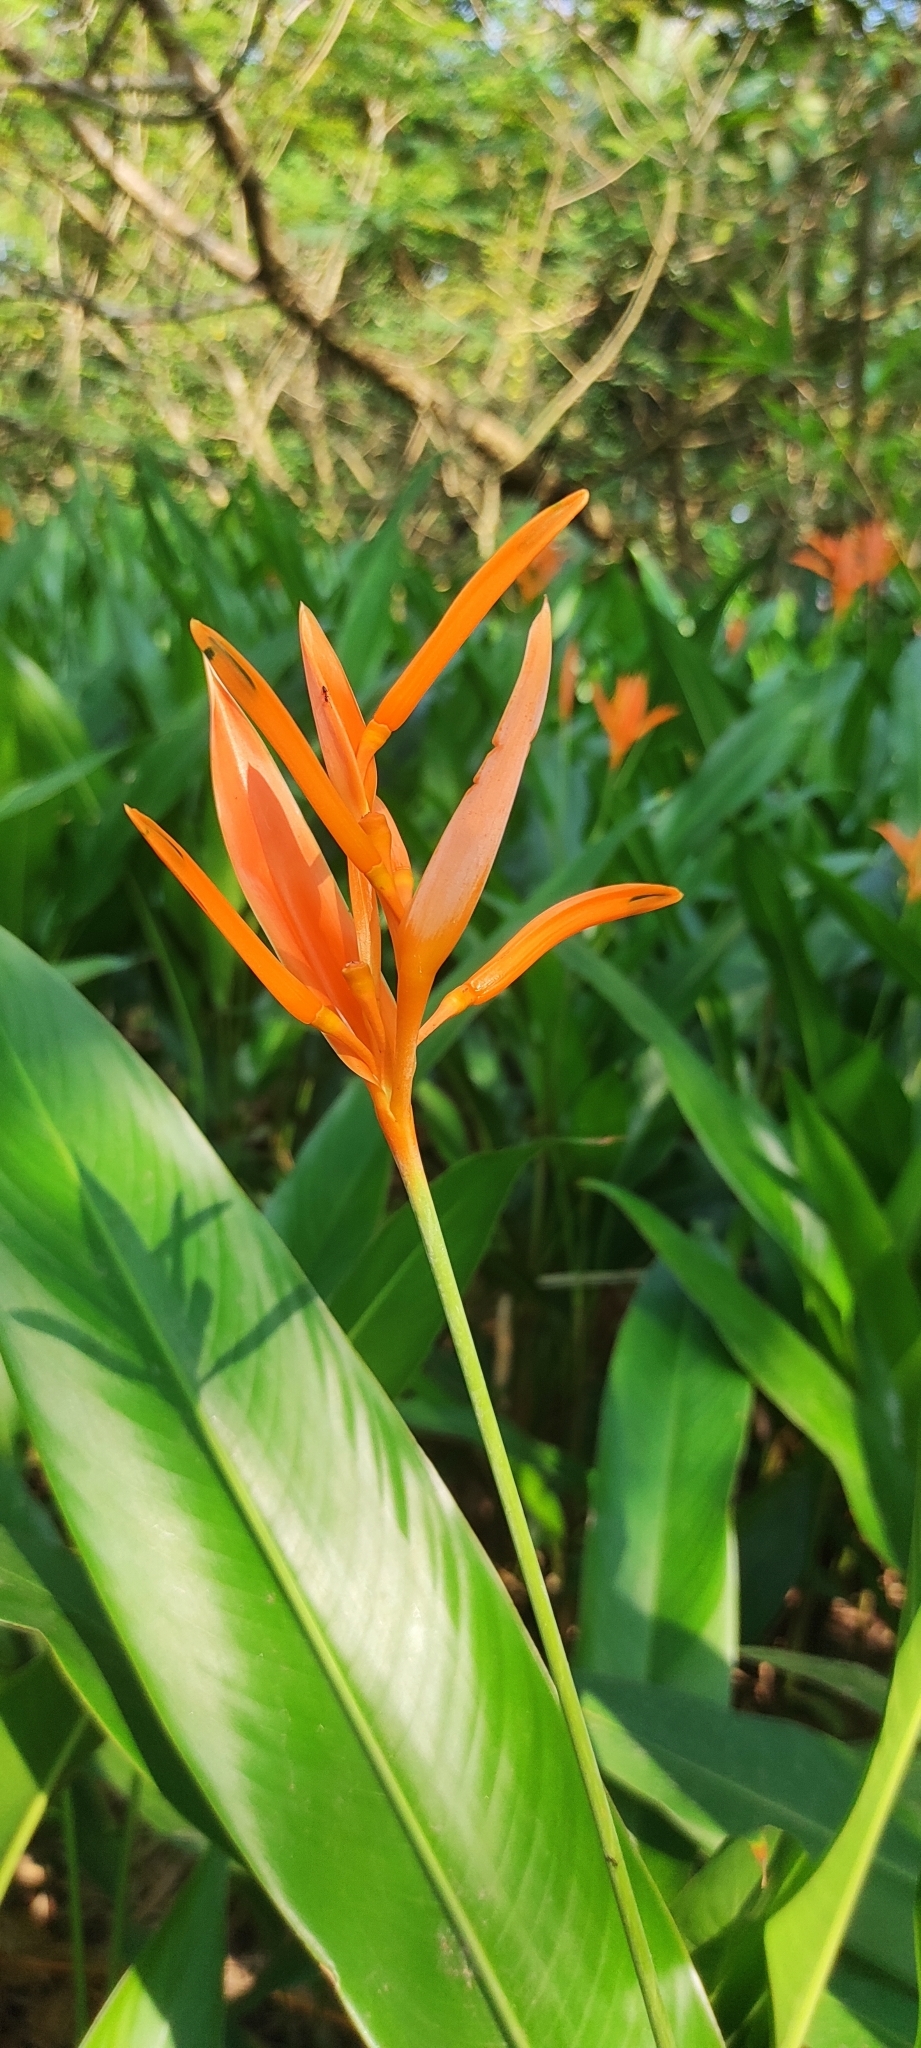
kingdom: Plantae
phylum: Tracheophyta
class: Liliopsida
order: Zingiberales
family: Heliconiaceae
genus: Heliconia
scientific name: Heliconia psittacorum
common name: Parrot's-flower
